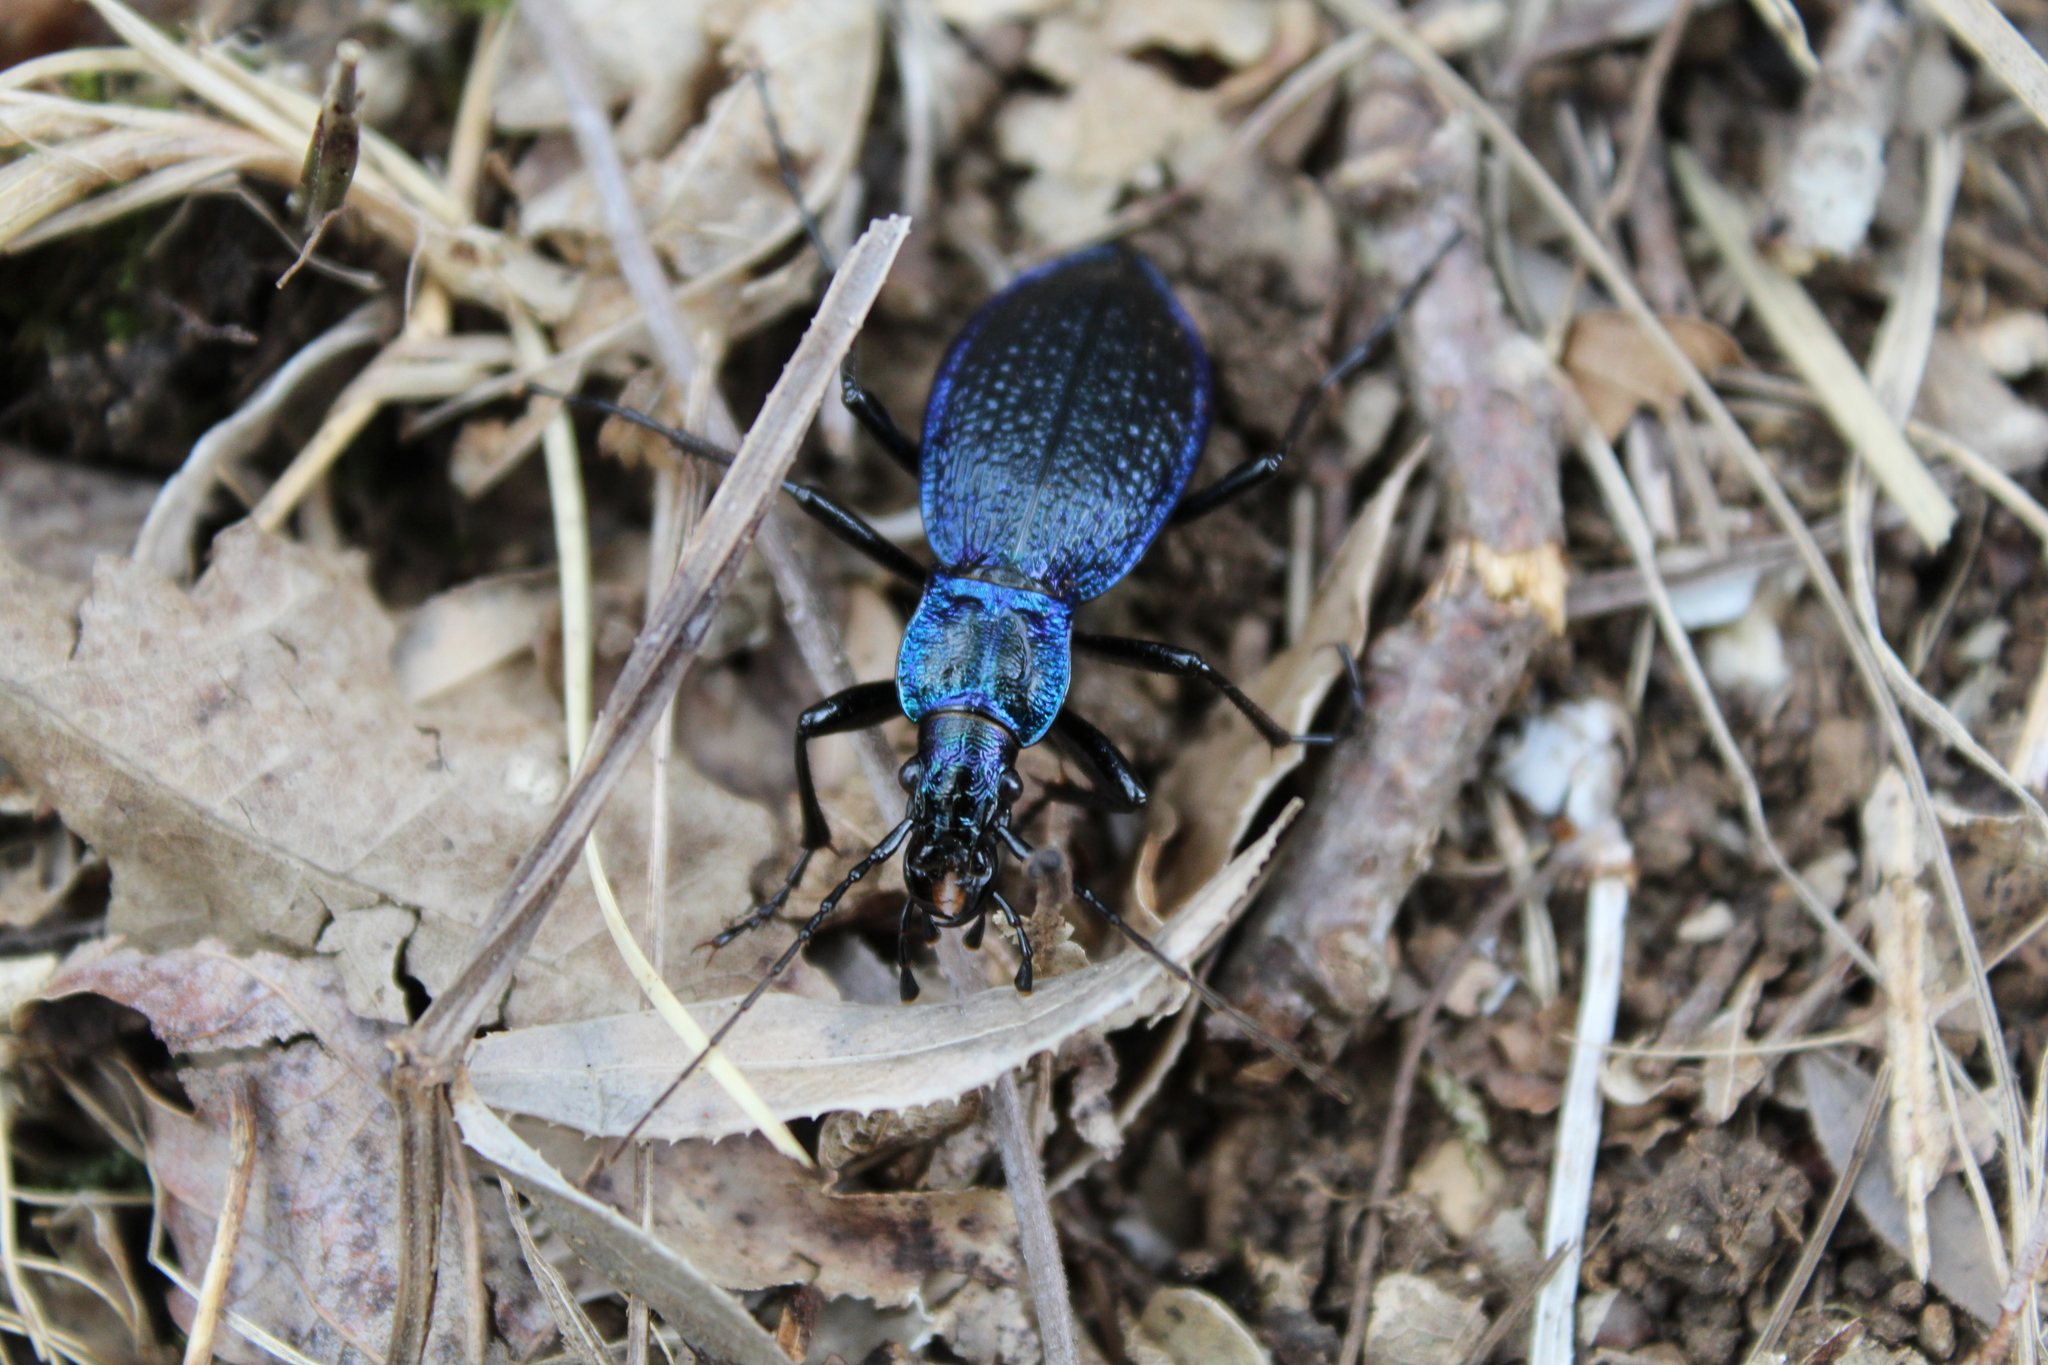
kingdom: Animalia
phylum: Arthropoda
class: Insecta
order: Coleoptera
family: Carabidae
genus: Carabus
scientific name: Carabus intricatus
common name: Blue ground beetle
